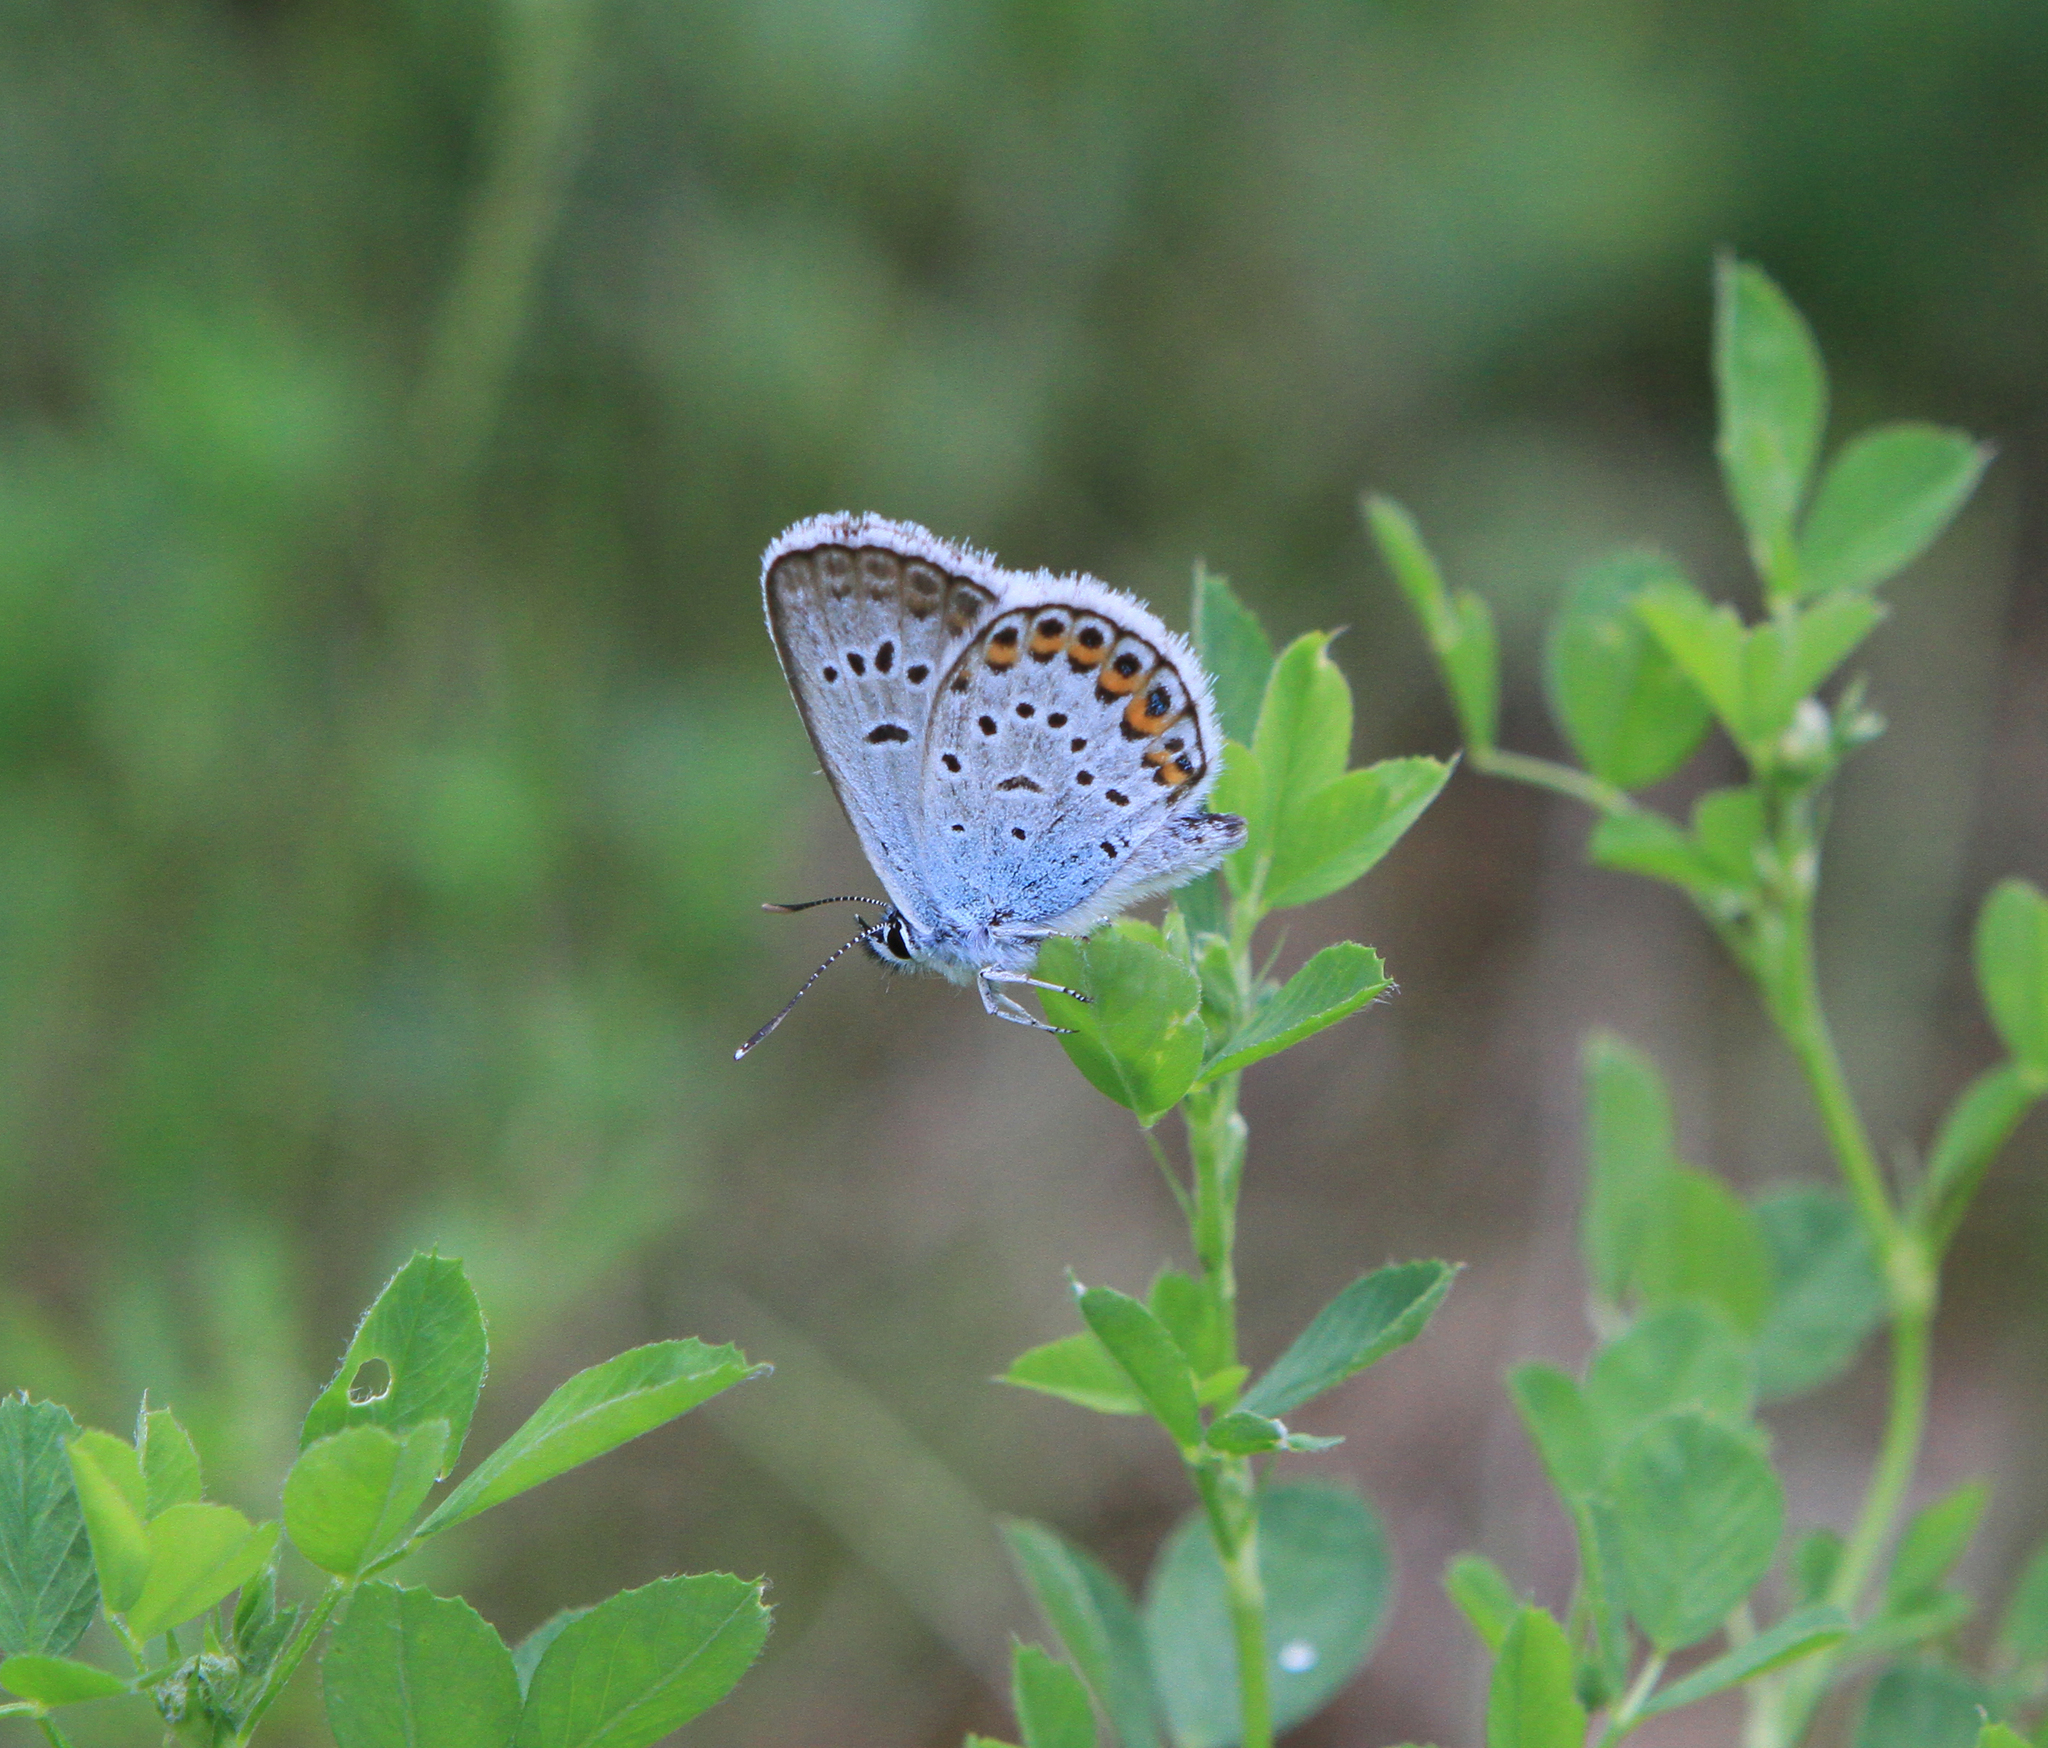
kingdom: Animalia
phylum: Arthropoda
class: Insecta
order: Lepidoptera
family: Lycaenidae
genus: Plebejus
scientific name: Plebejus argus
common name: Silver-studded blue
